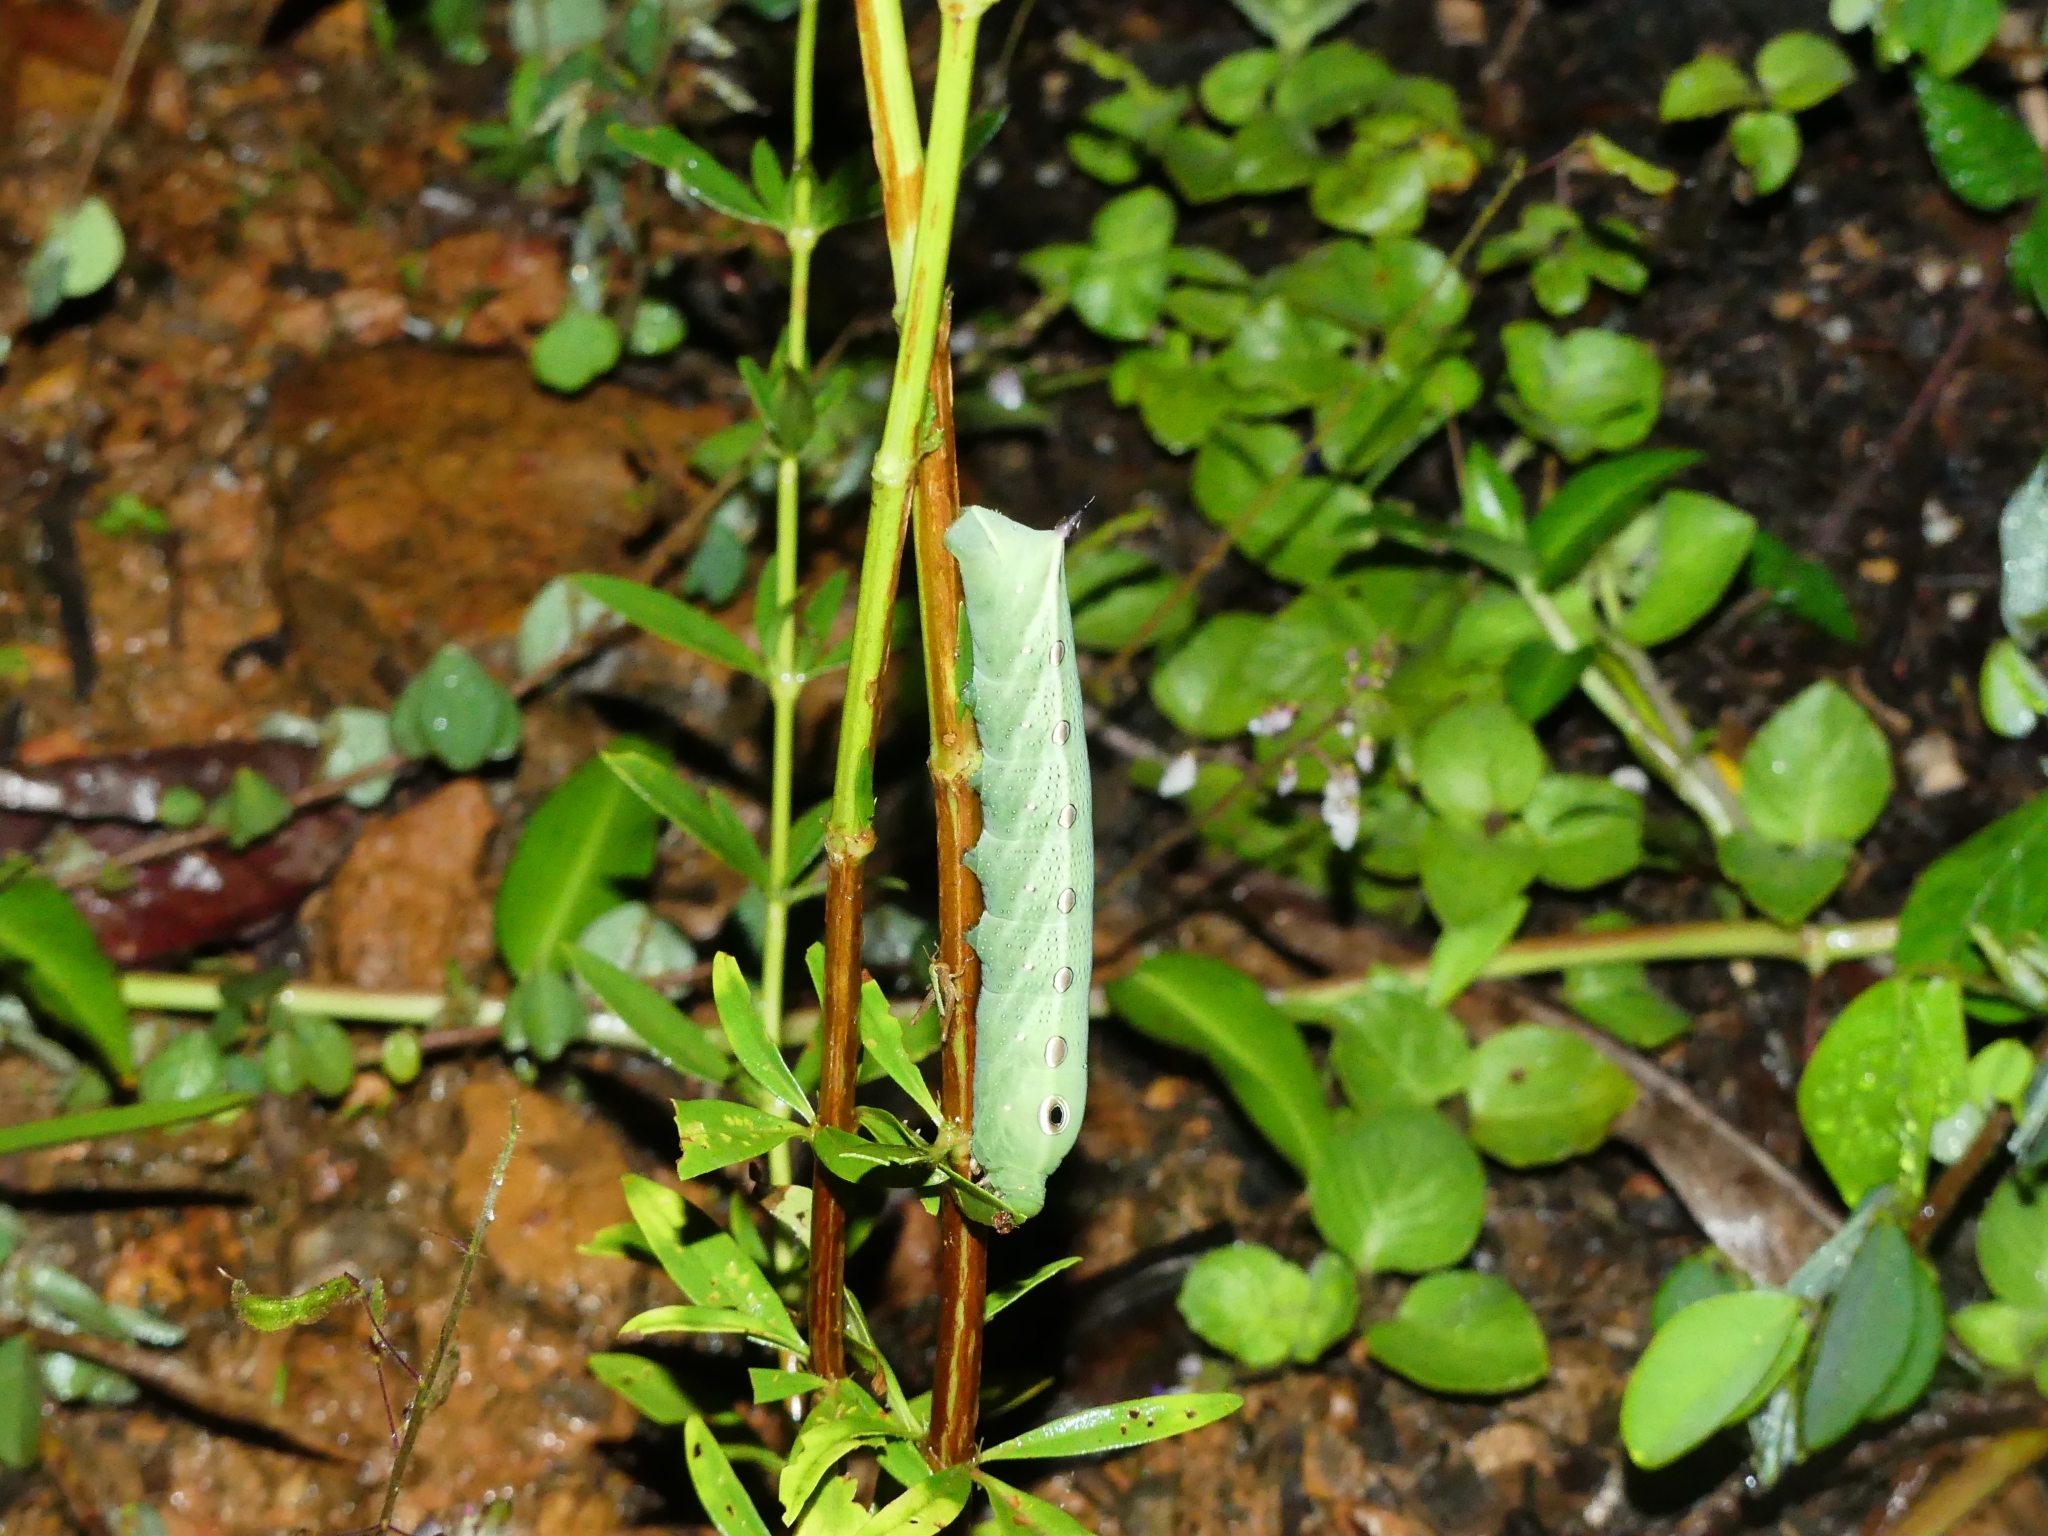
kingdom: Animalia
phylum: Arthropoda
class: Insecta
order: Lepidoptera
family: Sphingidae
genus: Xylophanes
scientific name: Xylophanes tersa
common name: Tersa sphinx
